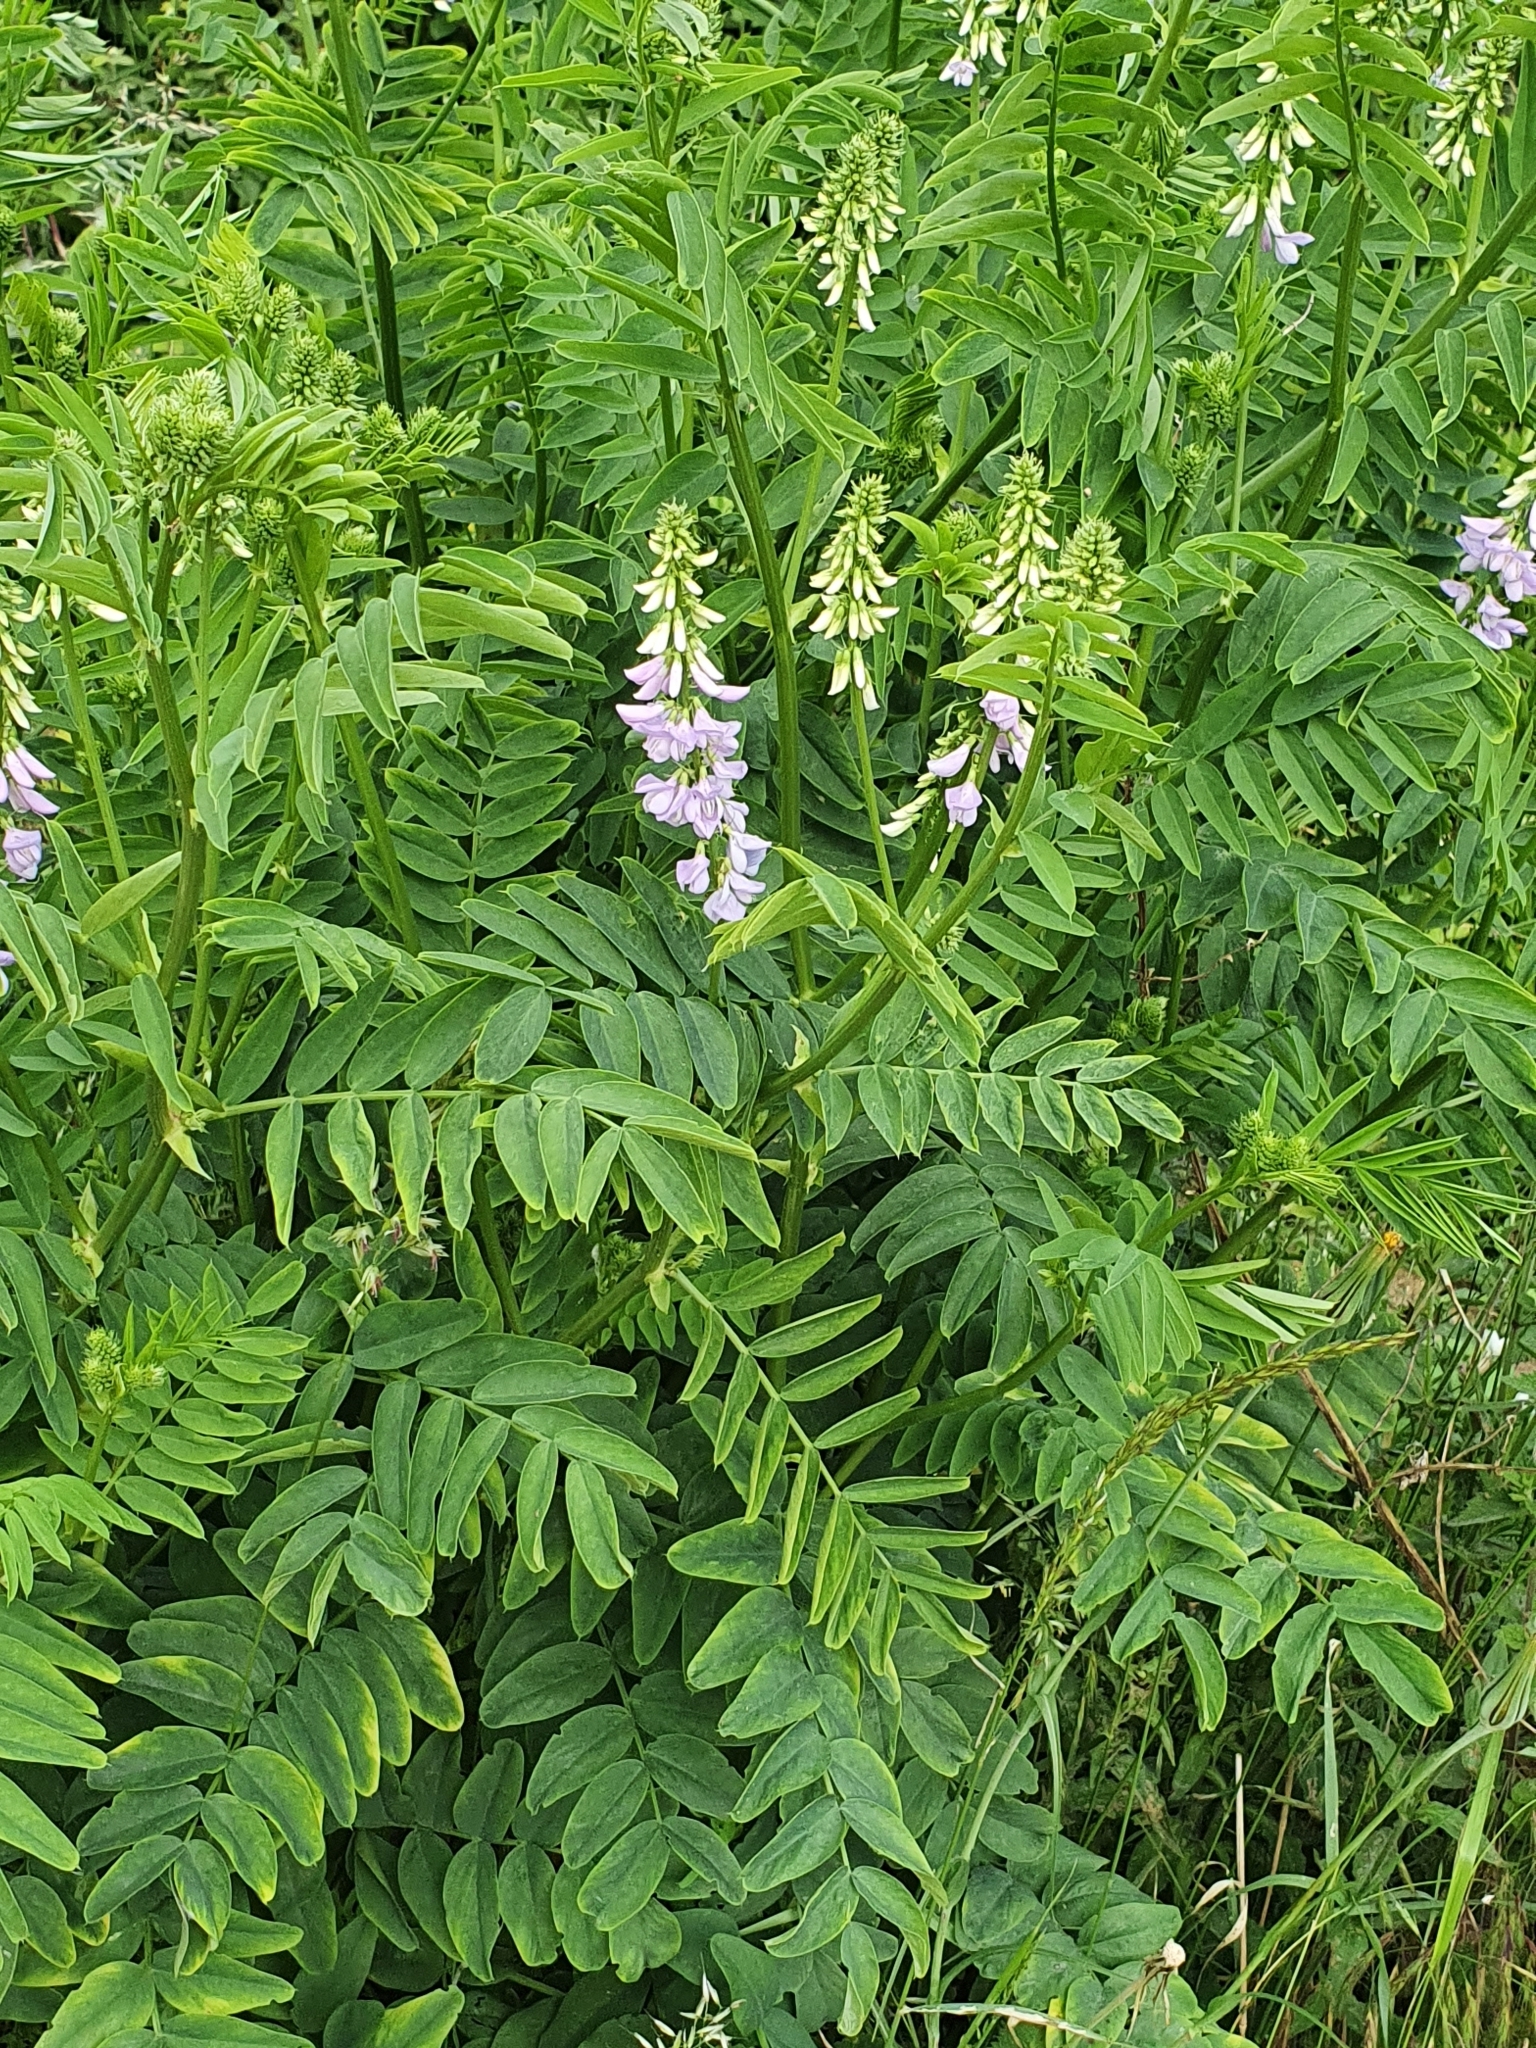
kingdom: Plantae
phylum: Tracheophyta
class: Magnoliopsida
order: Fabales
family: Fabaceae
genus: Galega
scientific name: Galega officinalis
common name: Goat's-rue
